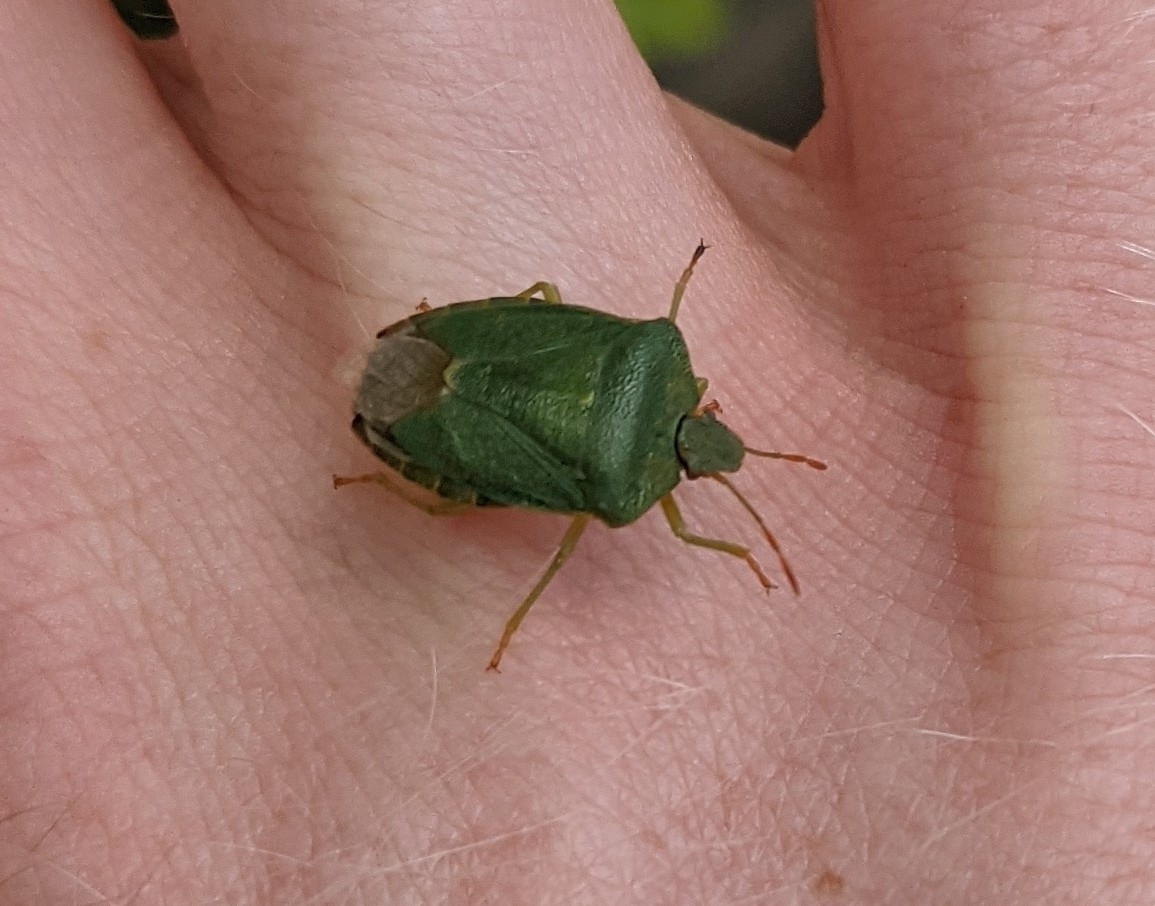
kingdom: Animalia
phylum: Arthropoda
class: Insecta
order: Hemiptera
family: Pentatomidae
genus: Palomena
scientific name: Palomena prasina
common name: Green shieldbug
